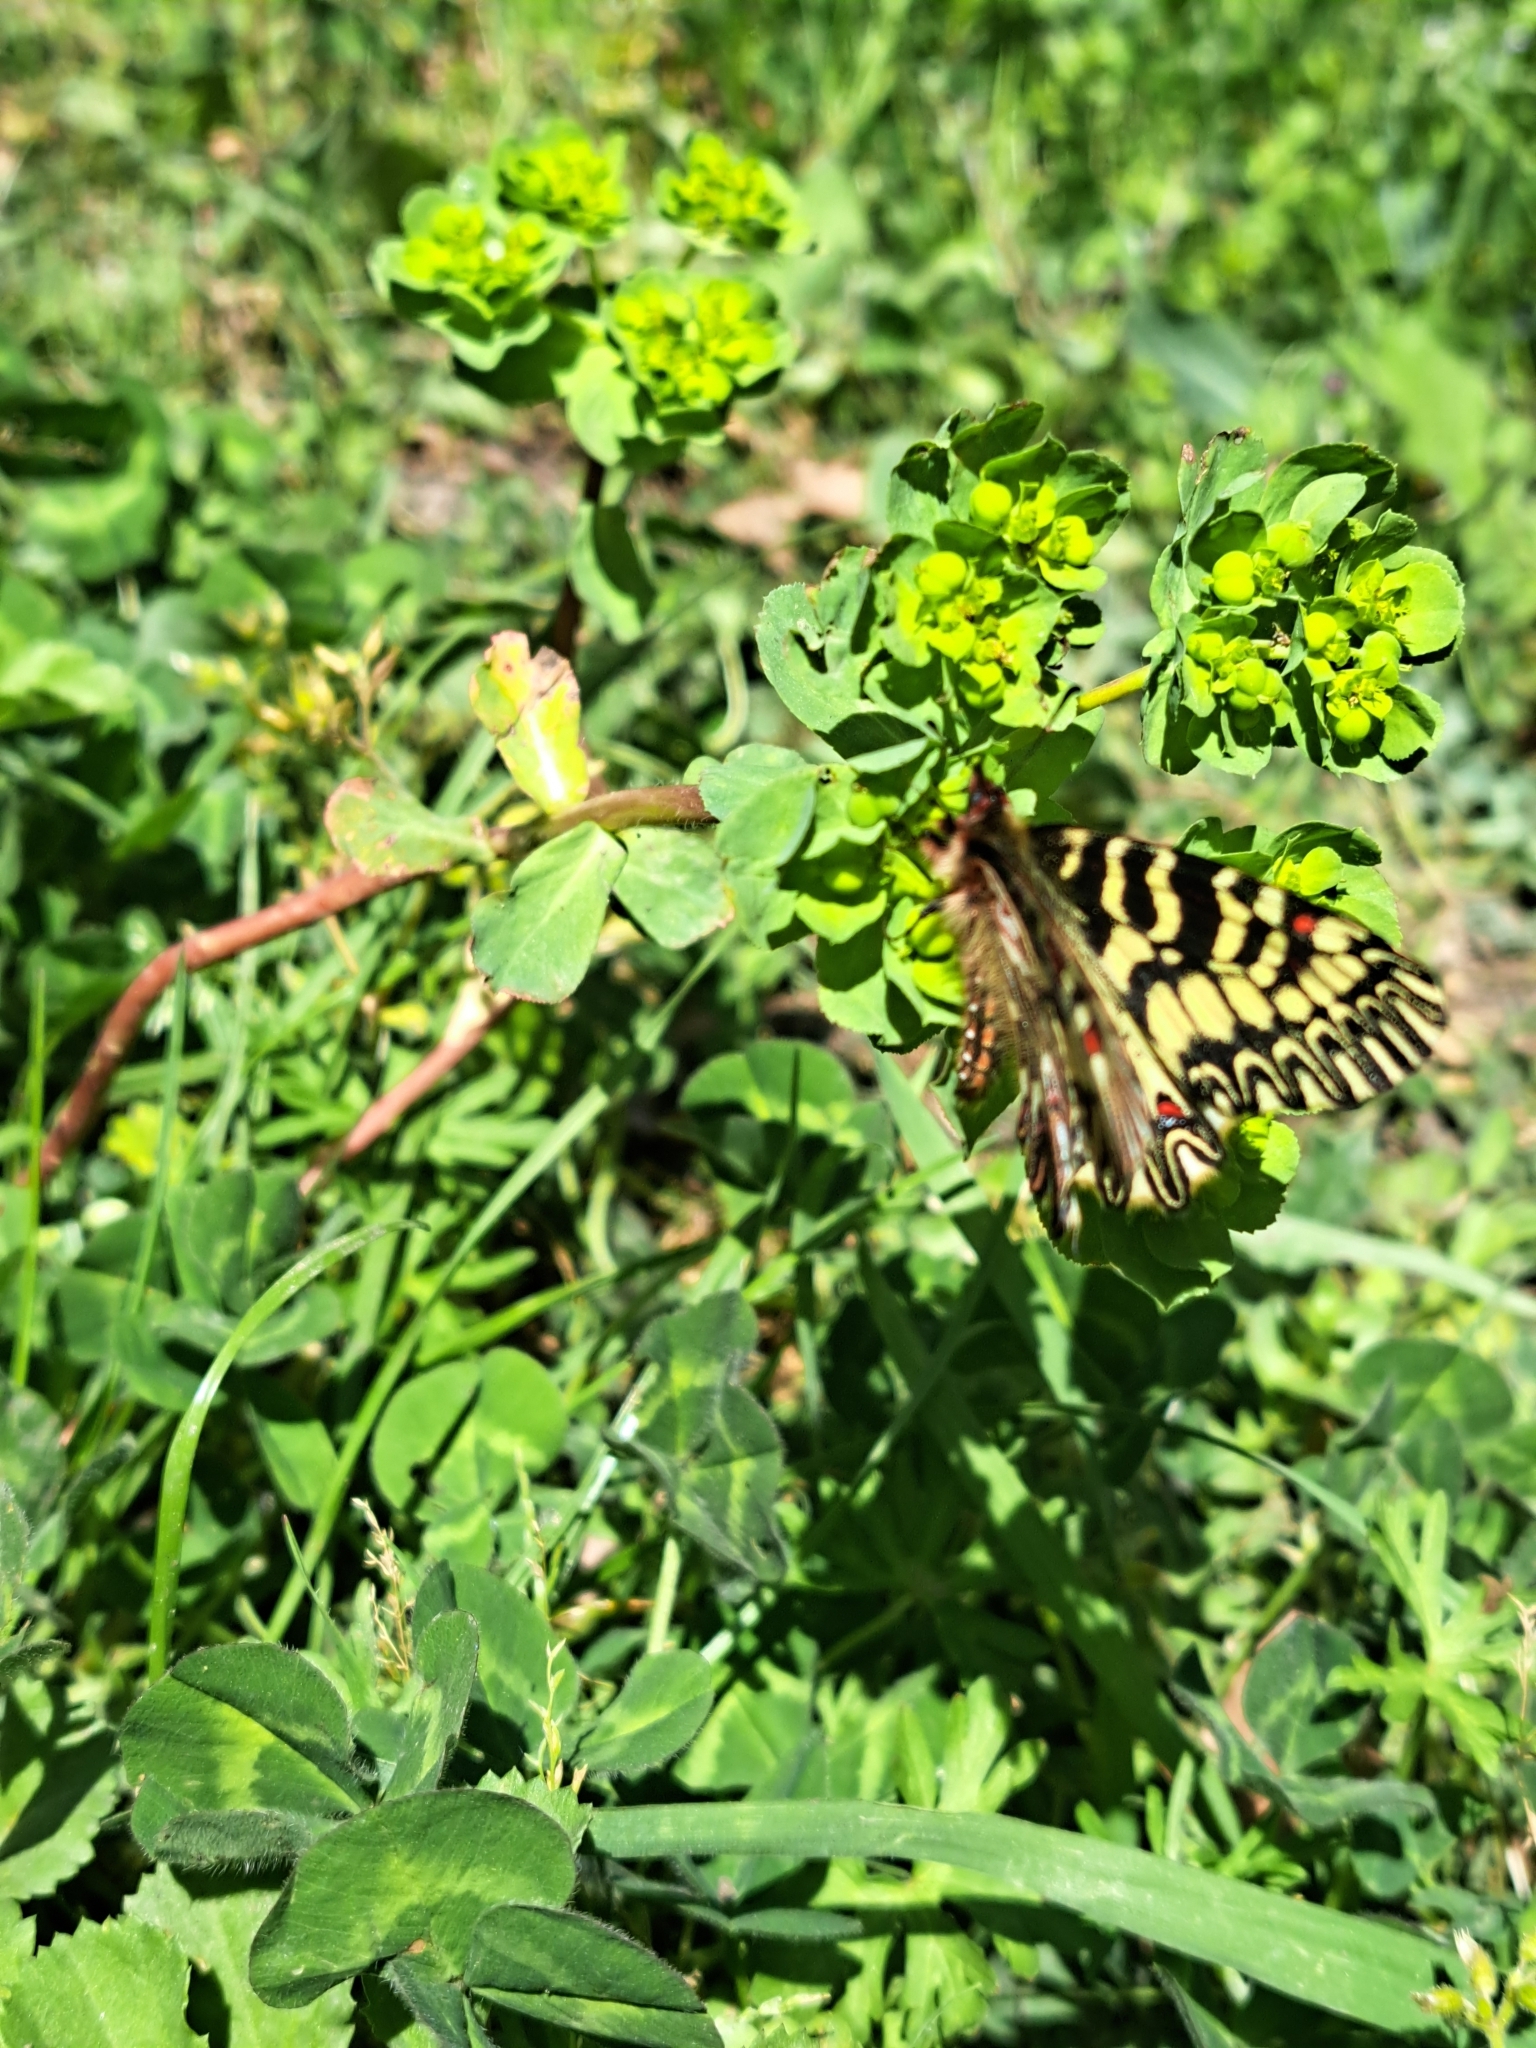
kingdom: Animalia
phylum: Arthropoda
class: Insecta
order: Lepidoptera
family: Papilionidae
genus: Zerynthia
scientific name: Zerynthia cassandra
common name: Italian festoon
